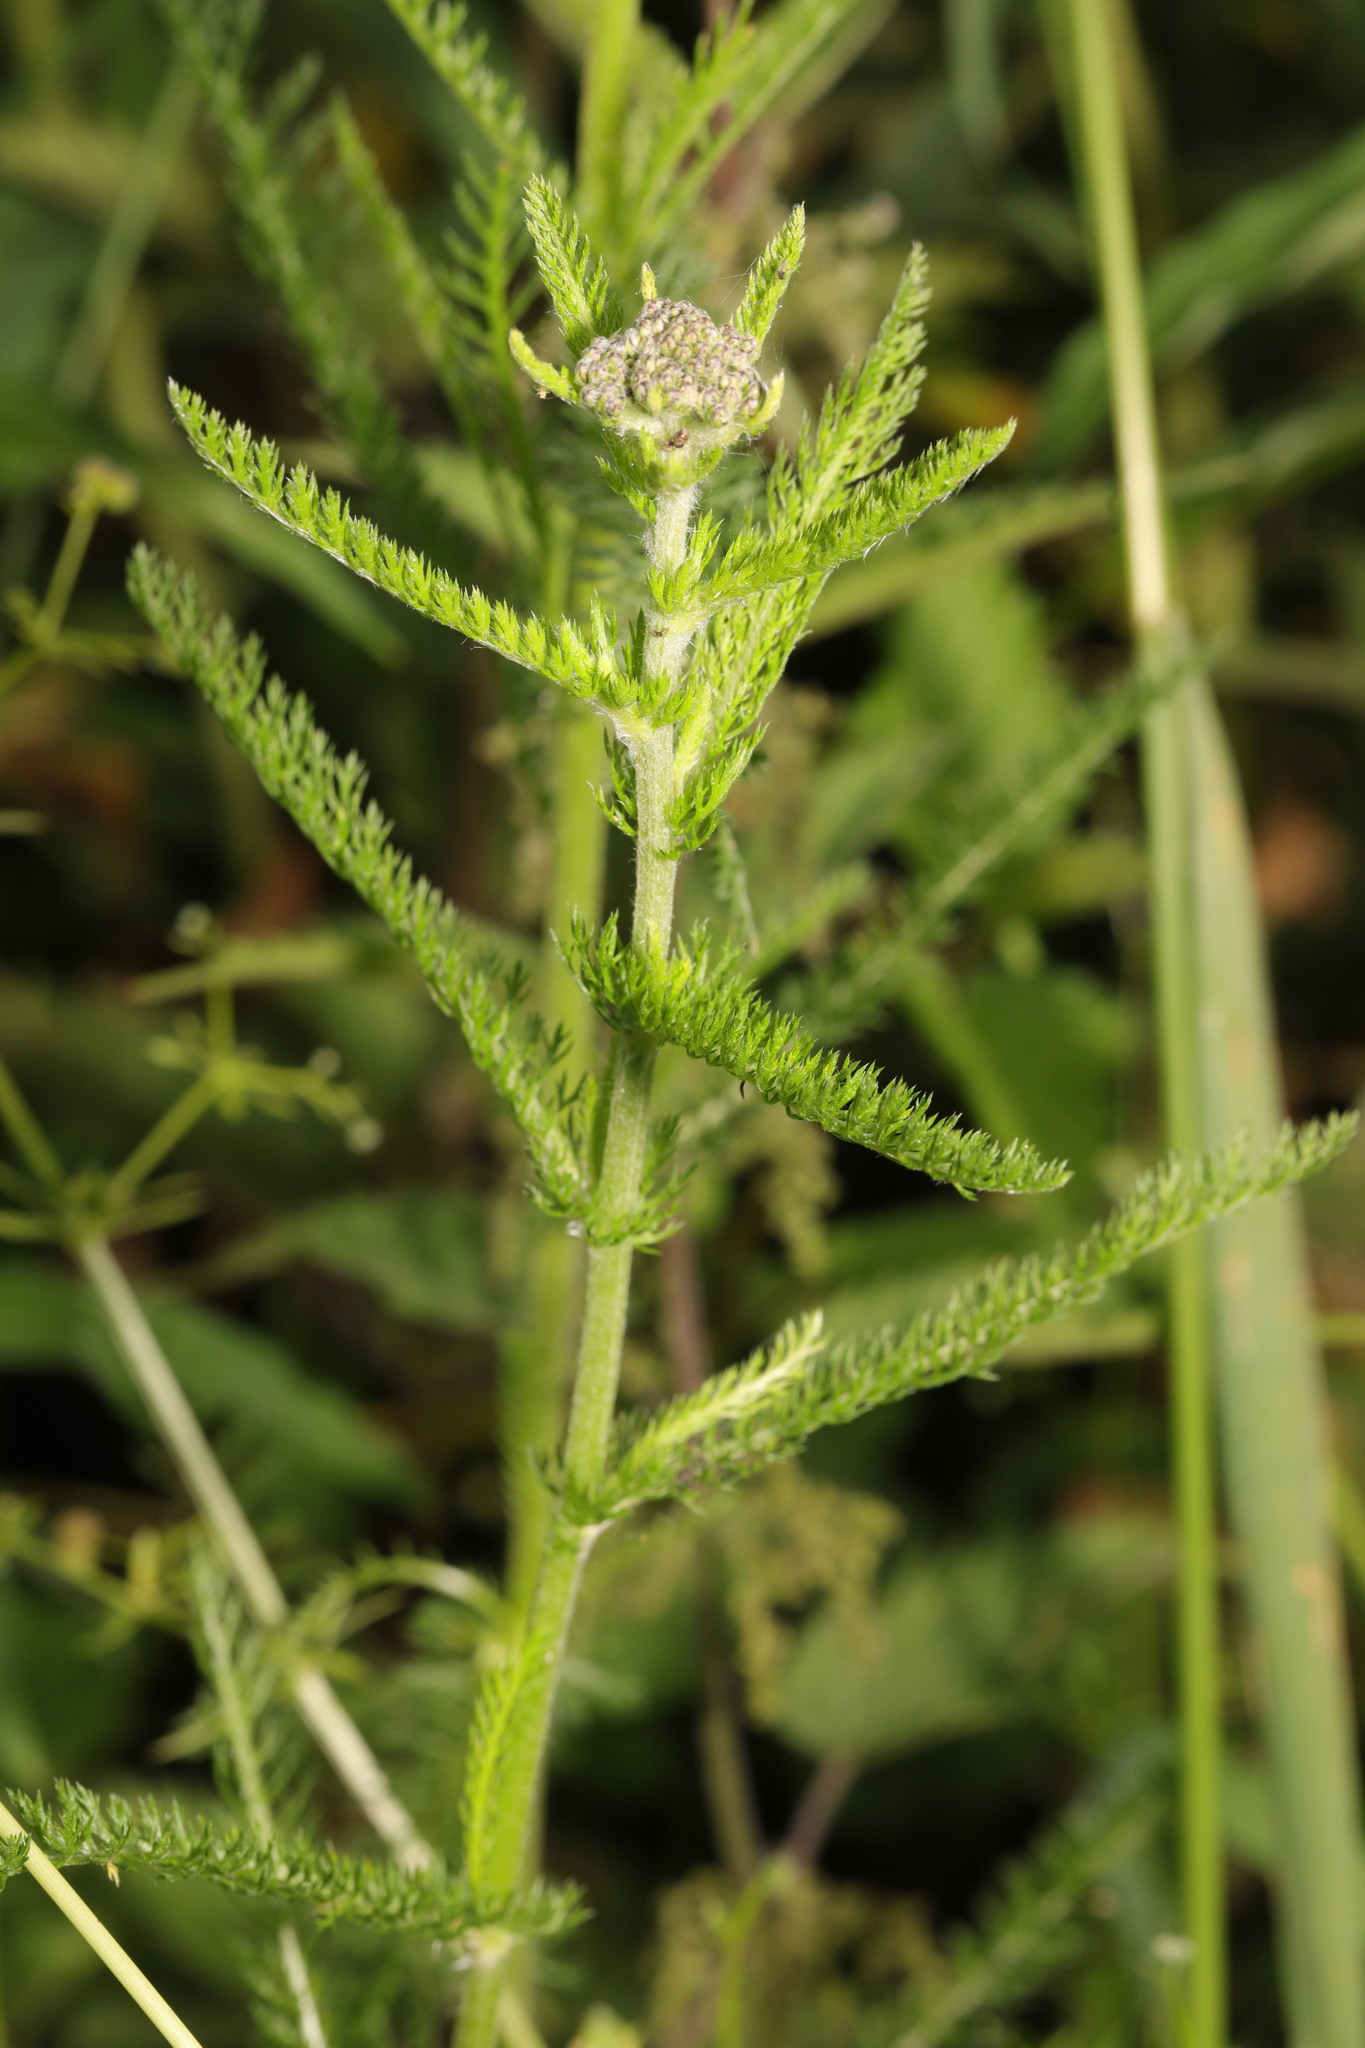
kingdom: Plantae
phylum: Tracheophyta
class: Magnoliopsida
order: Asterales
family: Asteraceae
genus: Achillea
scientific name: Achillea millefolium
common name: Yarrow
